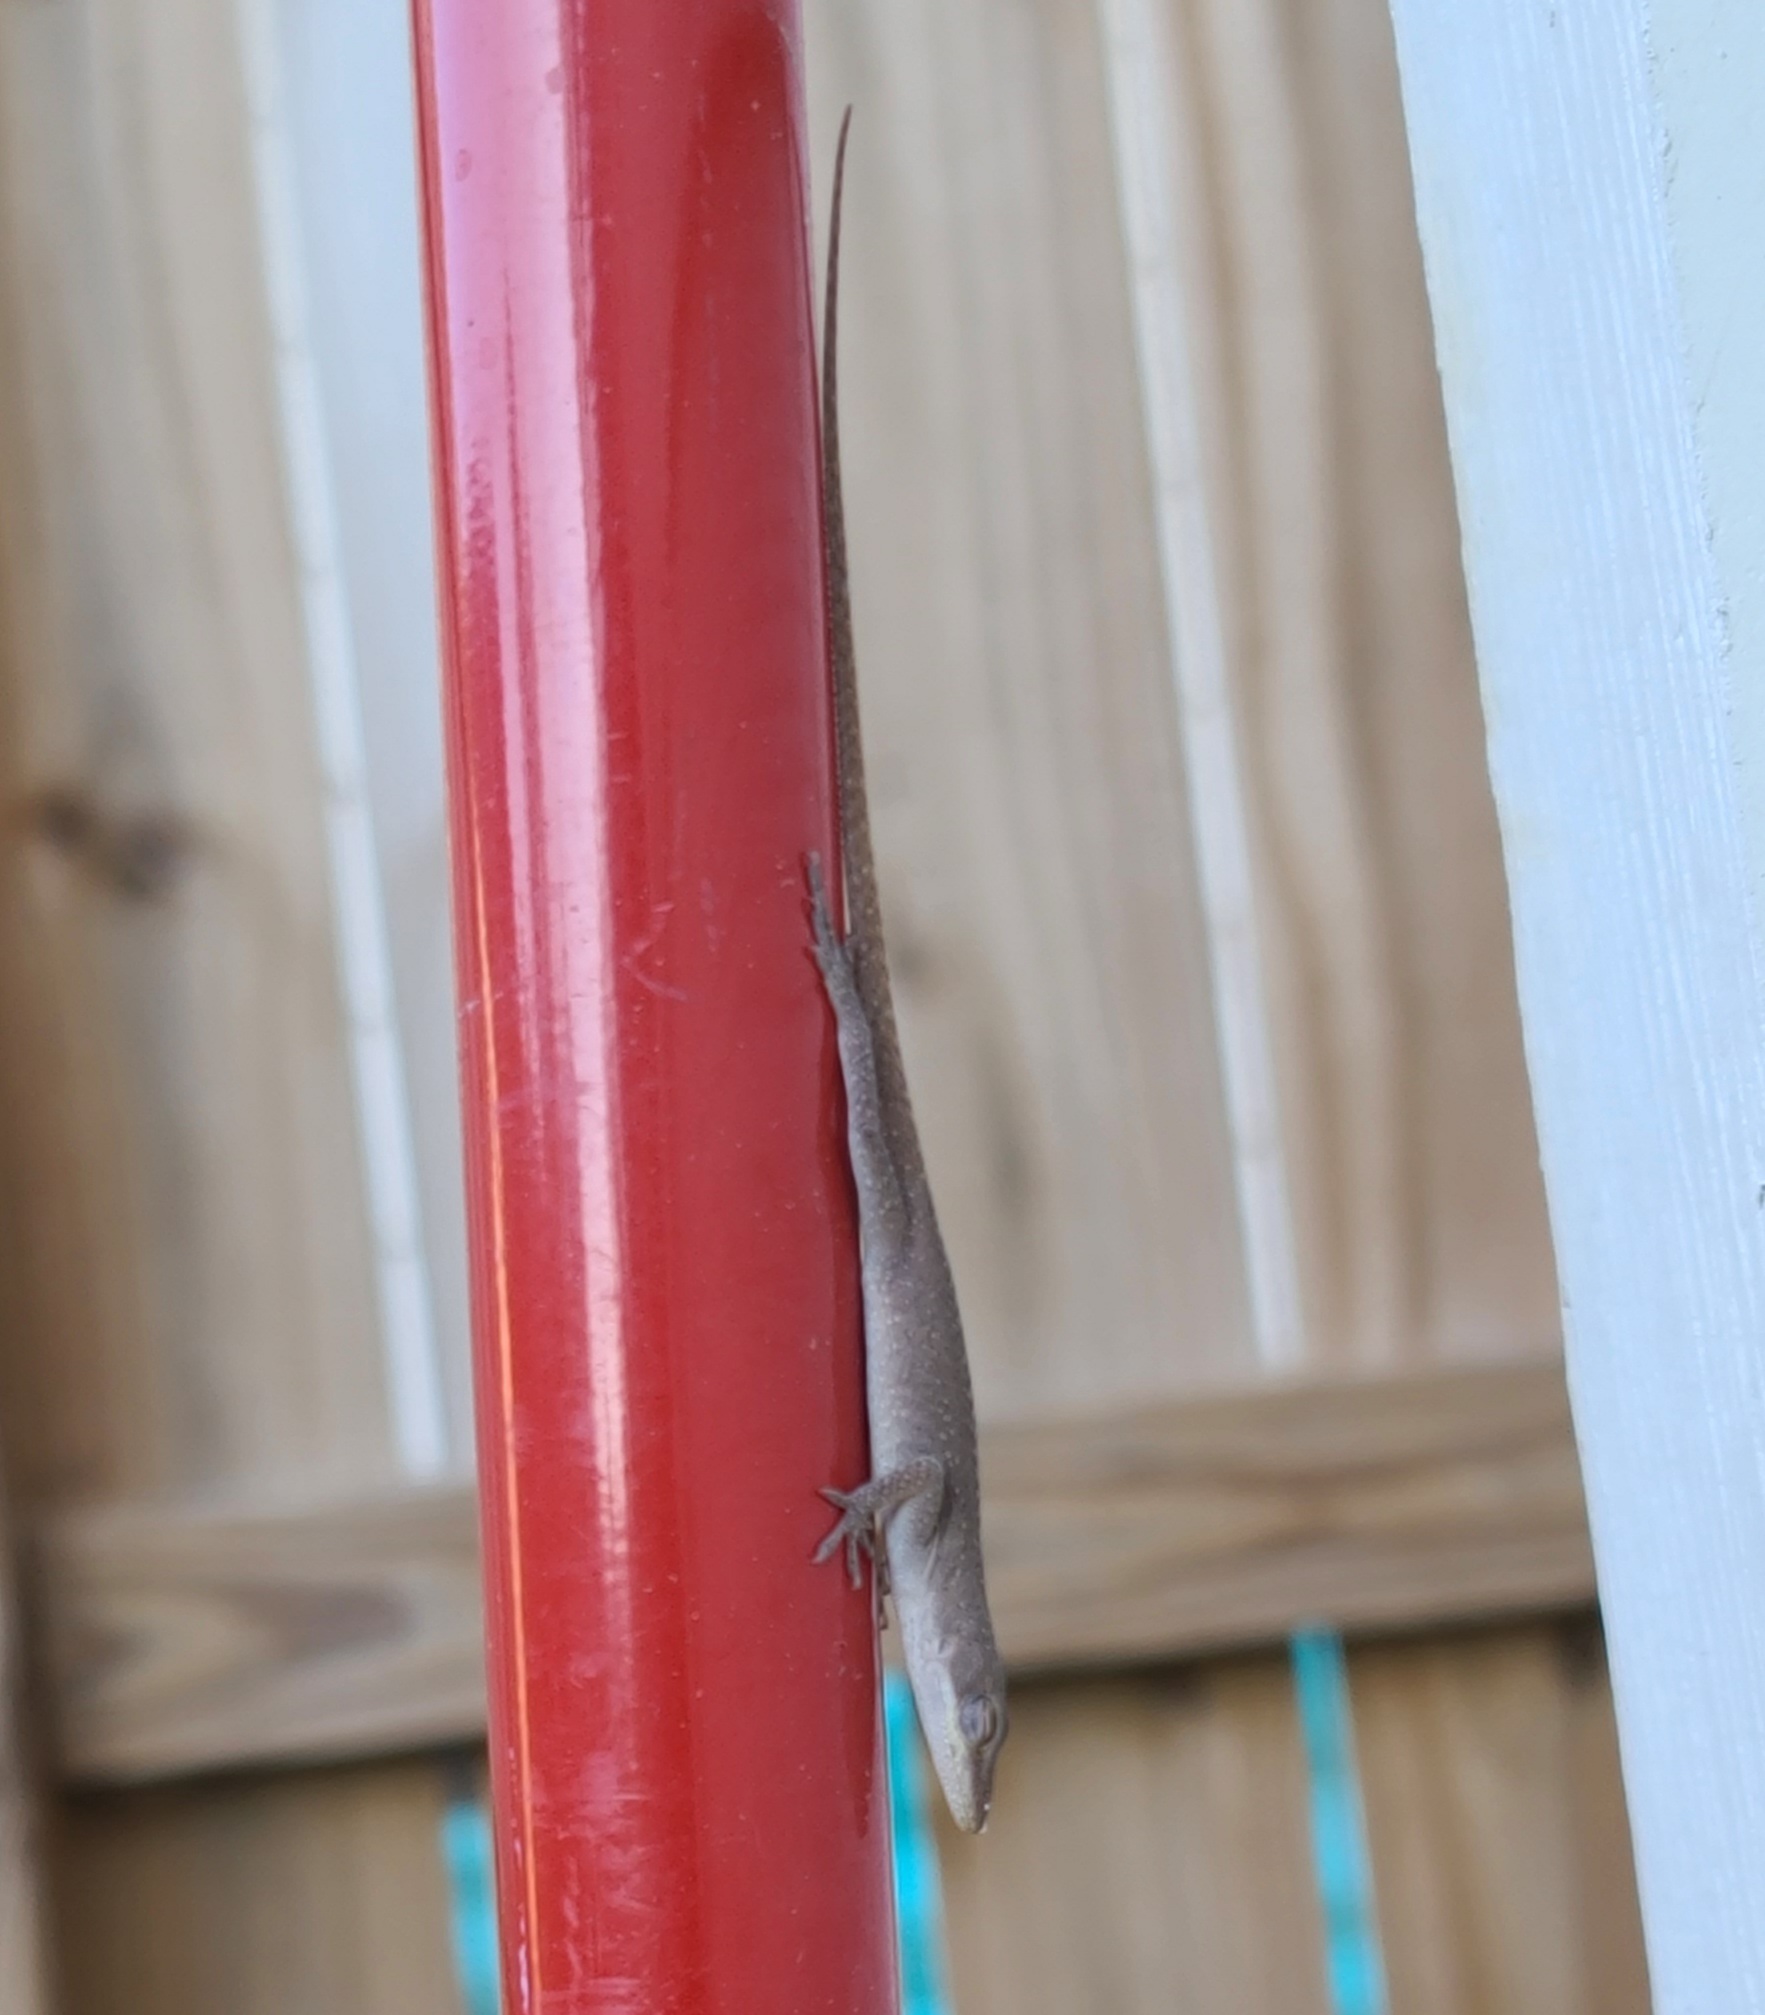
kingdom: Animalia
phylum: Chordata
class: Squamata
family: Dactyloidae
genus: Anolis
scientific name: Anolis carolinensis
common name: Green anole
